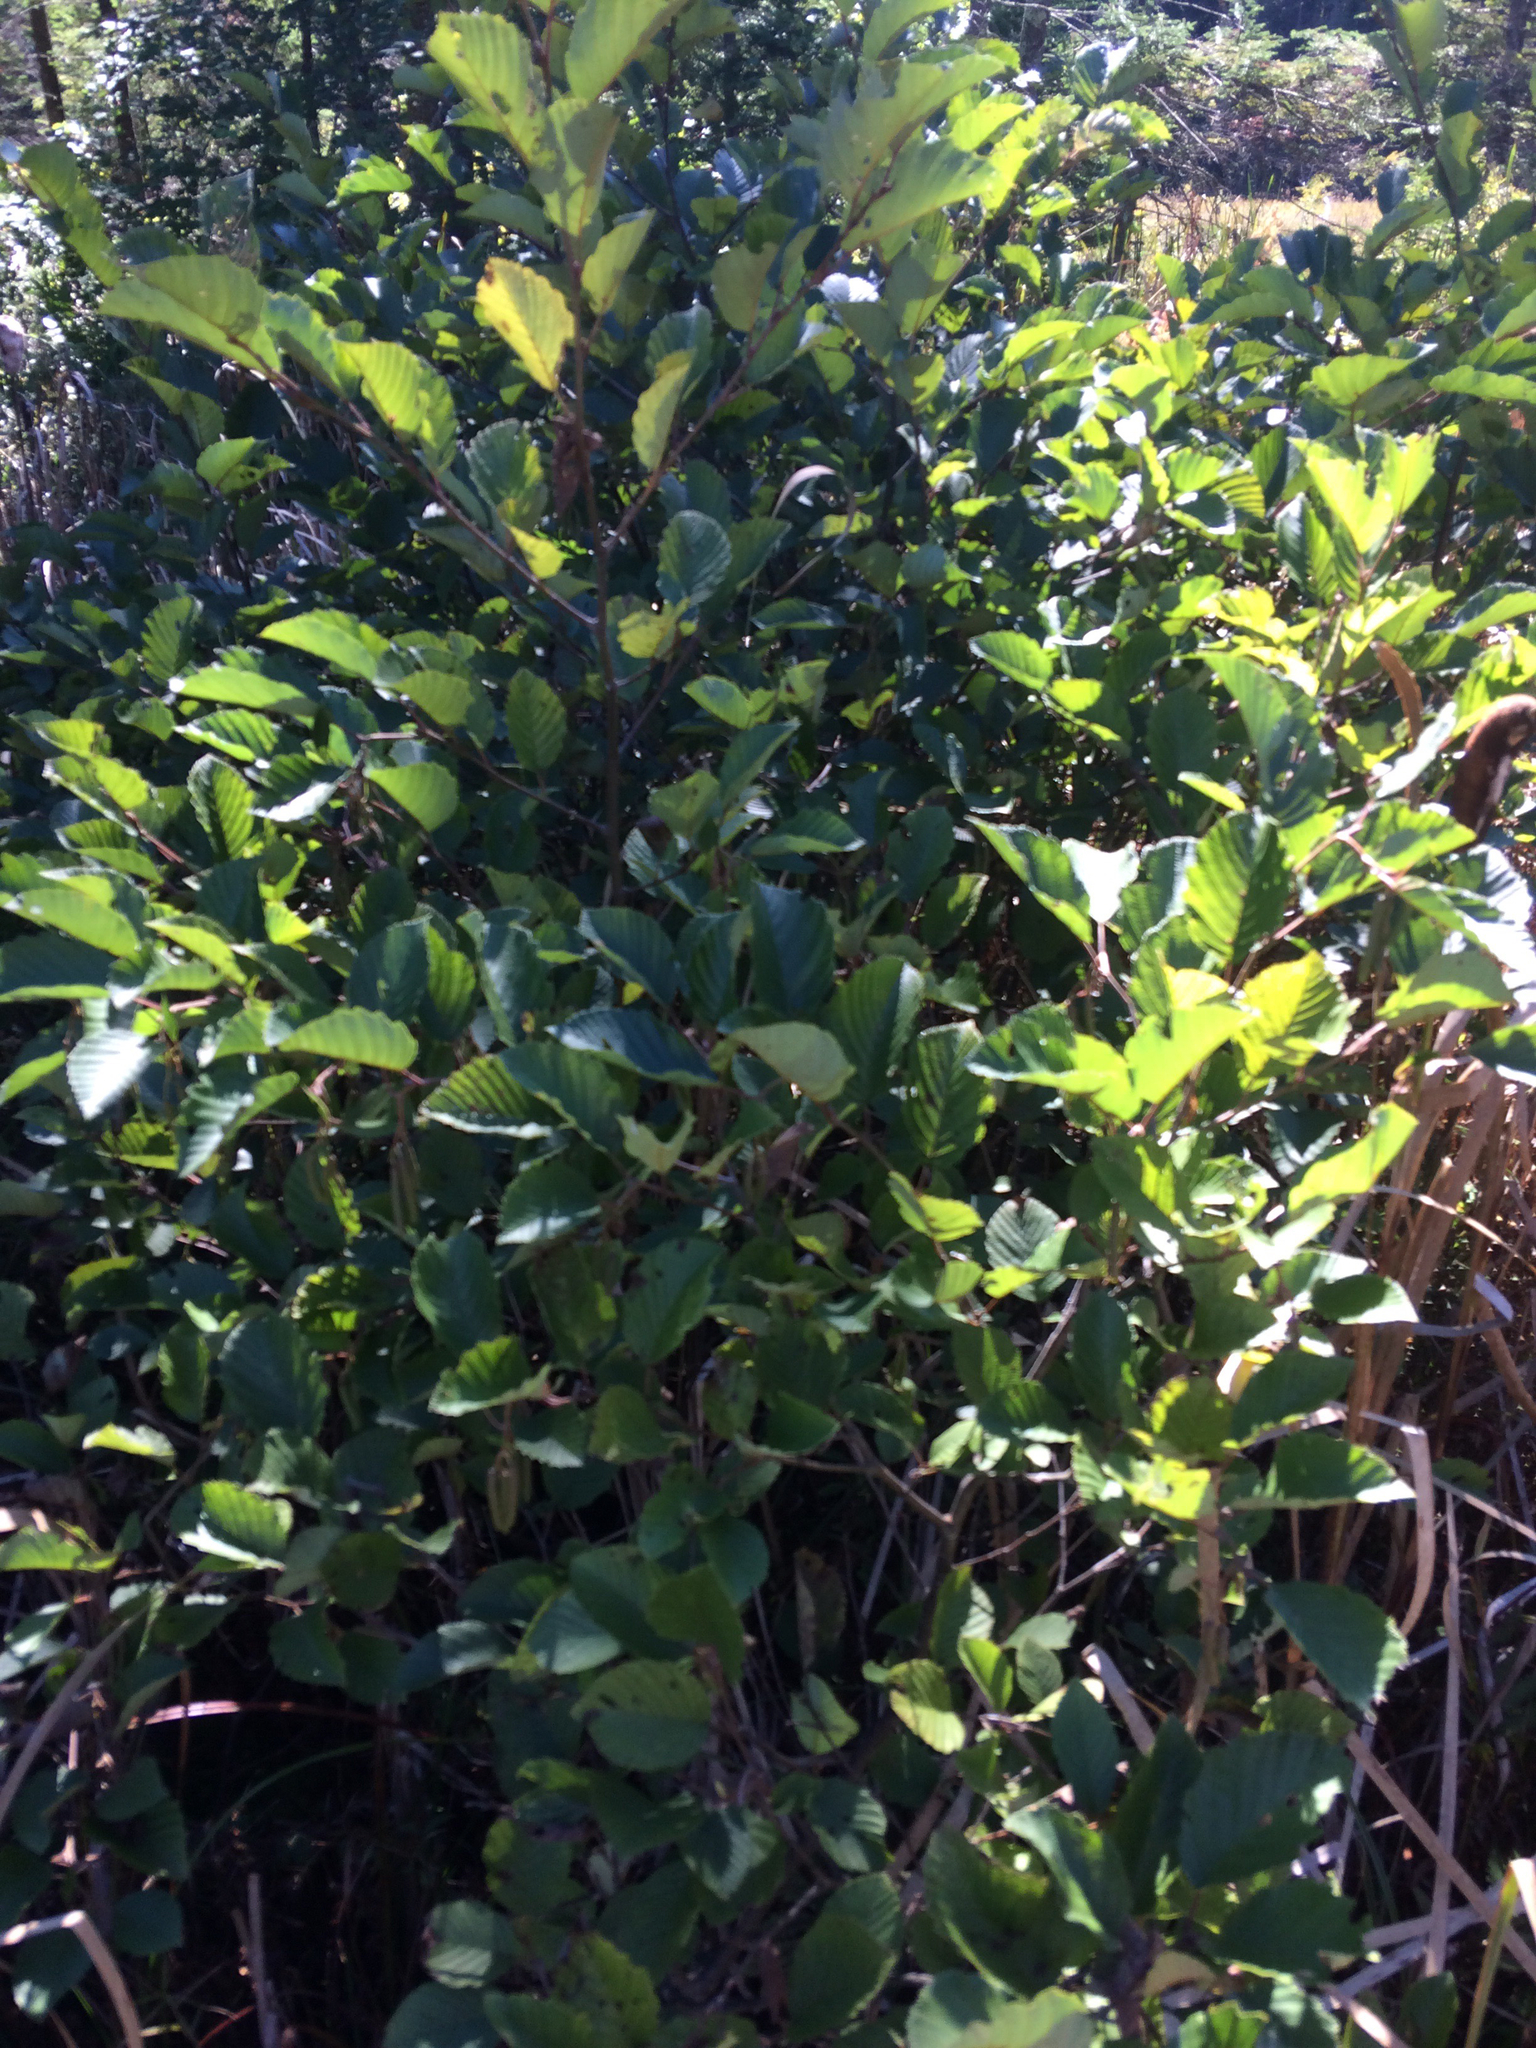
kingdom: Plantae
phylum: Tracheophyta
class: Magnoliopsida
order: Fagales
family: Betulaceae
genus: Alnus
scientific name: Alnus incana
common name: Grey alder
